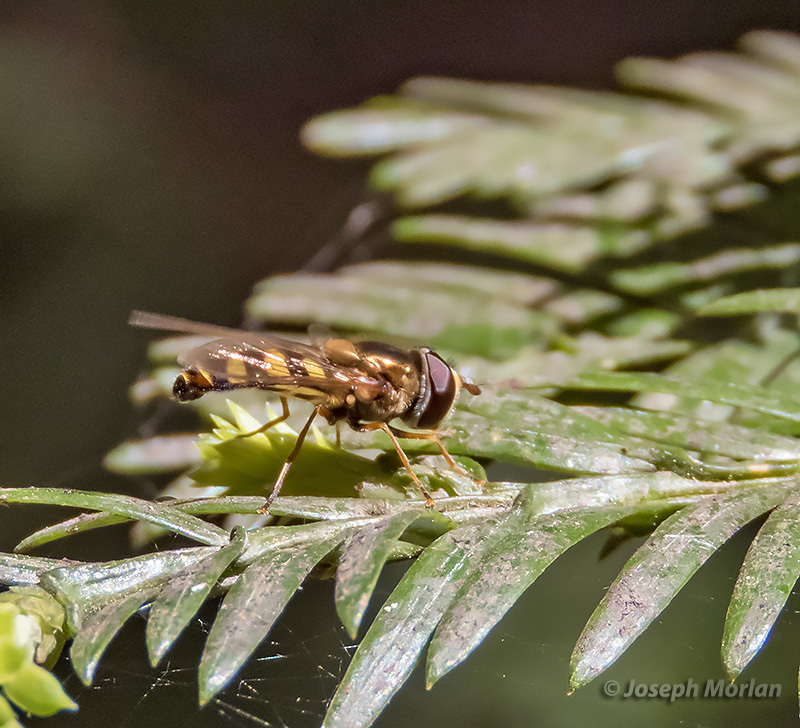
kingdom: Animalia
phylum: Arthropoda
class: Insecta
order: Diptera
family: Syrphidae
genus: Eupeodes
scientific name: Eupeodes fumipennis
